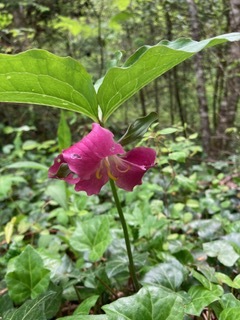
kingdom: Plantae
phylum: Tracheophyta
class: Liliopsida
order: Liliales
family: Melanthiaceae
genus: Trillium
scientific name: Trillium catesbaei
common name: Bashful trillium
